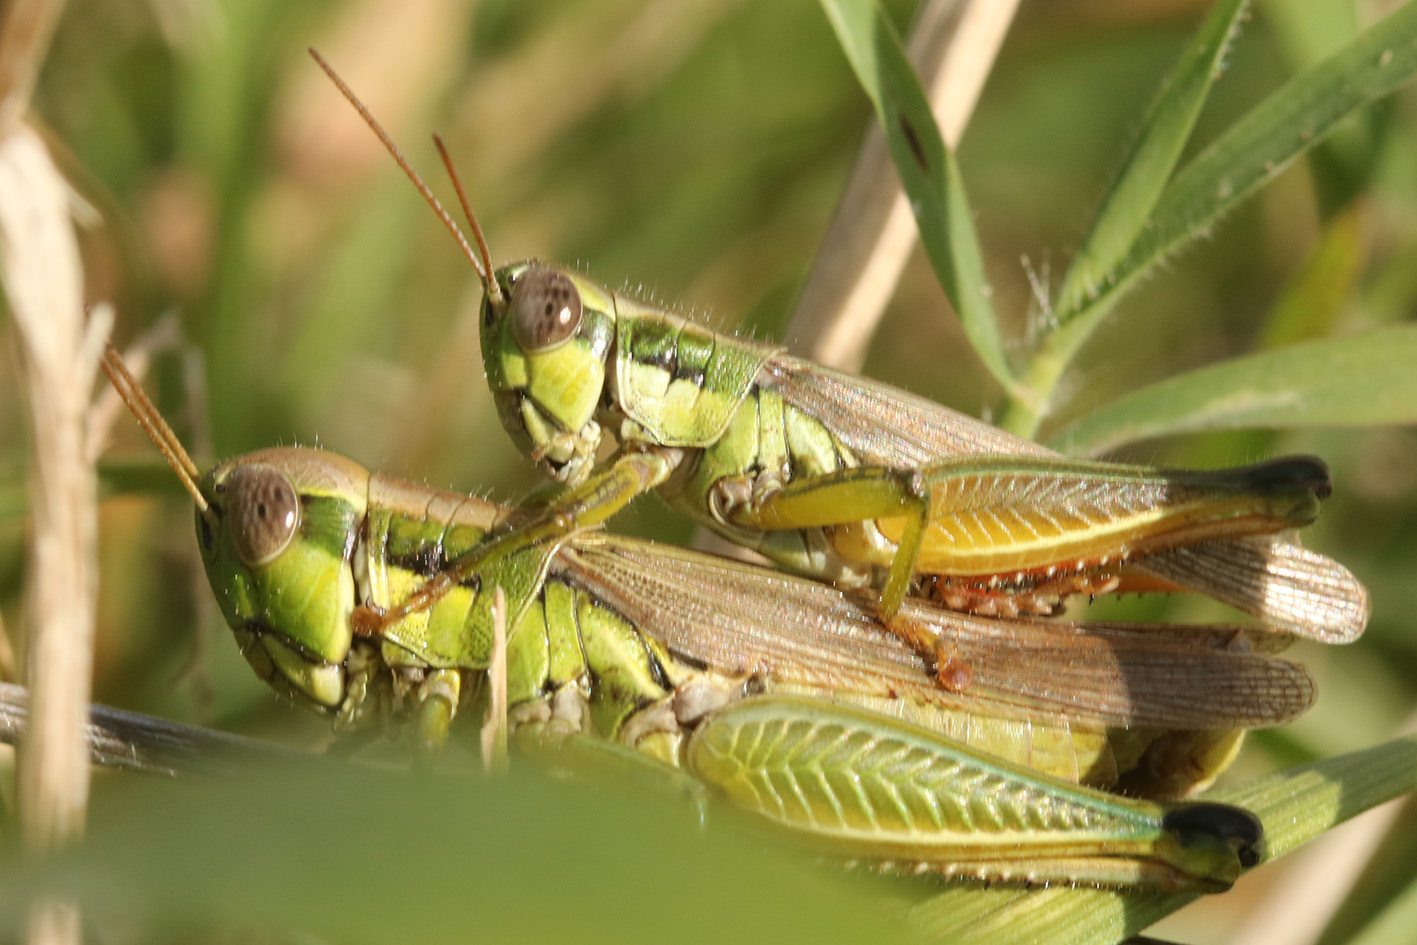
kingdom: Animalia
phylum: Arthropoda
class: Insecta
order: Orthoptera
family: Acrididae
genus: Leiotettix
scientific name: Leiotettix pulcher
